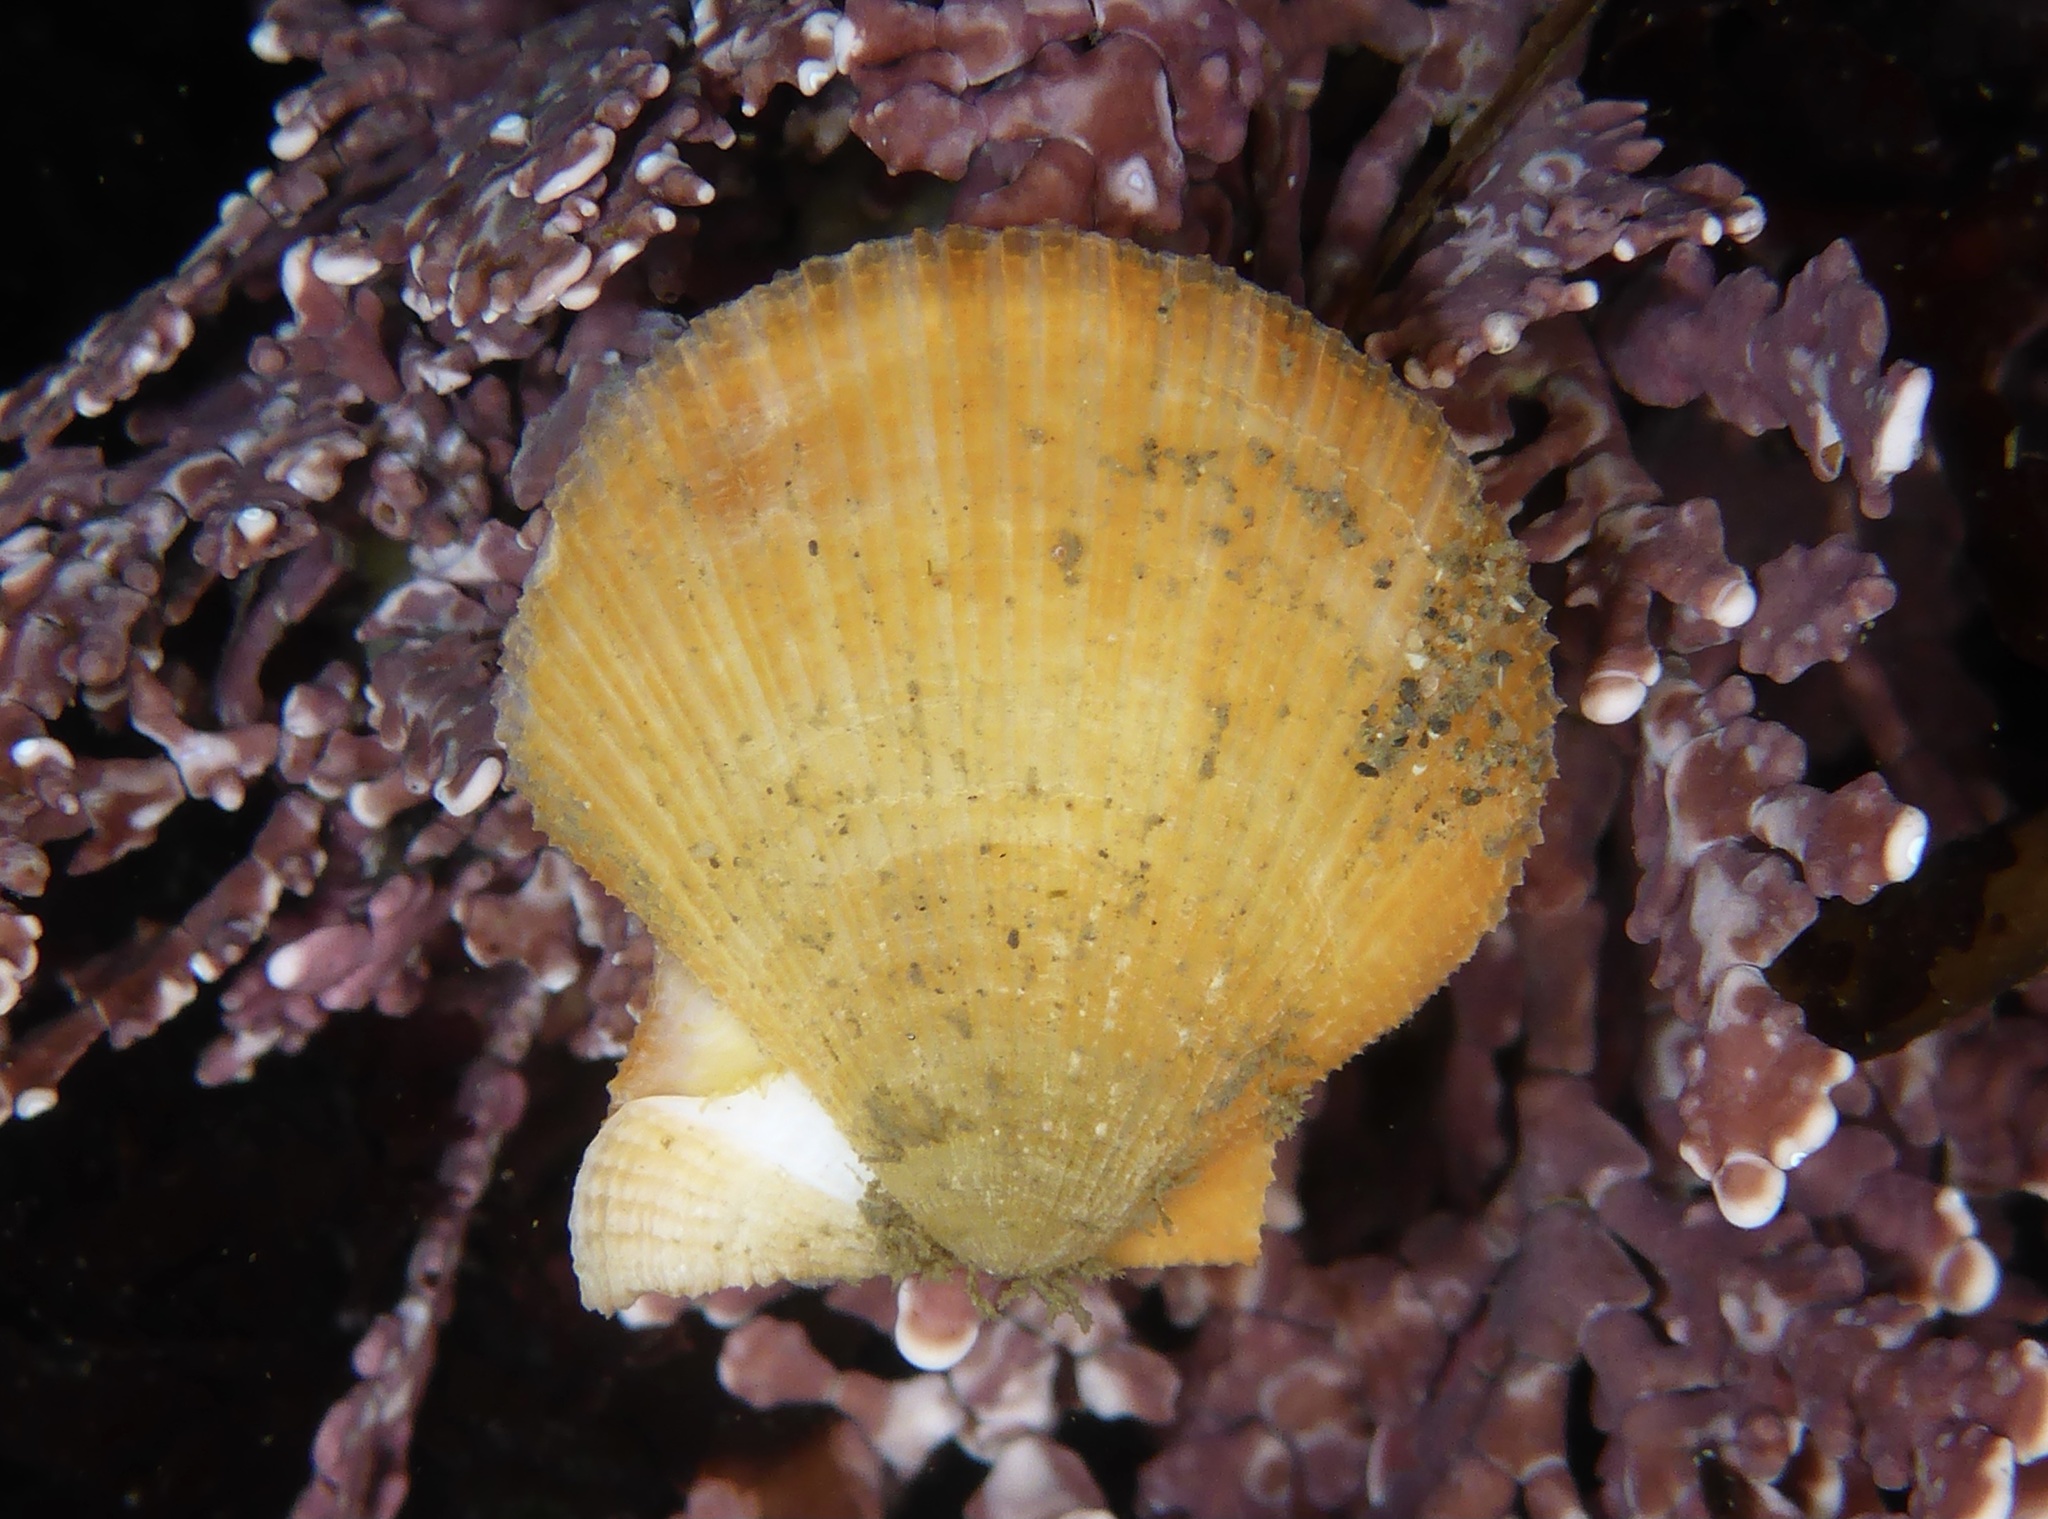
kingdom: Animalia
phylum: Mollusca
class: Bivalvia
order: Pectinida
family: Pectinidae
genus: Crassadoma
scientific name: Crassadoma gigantea
